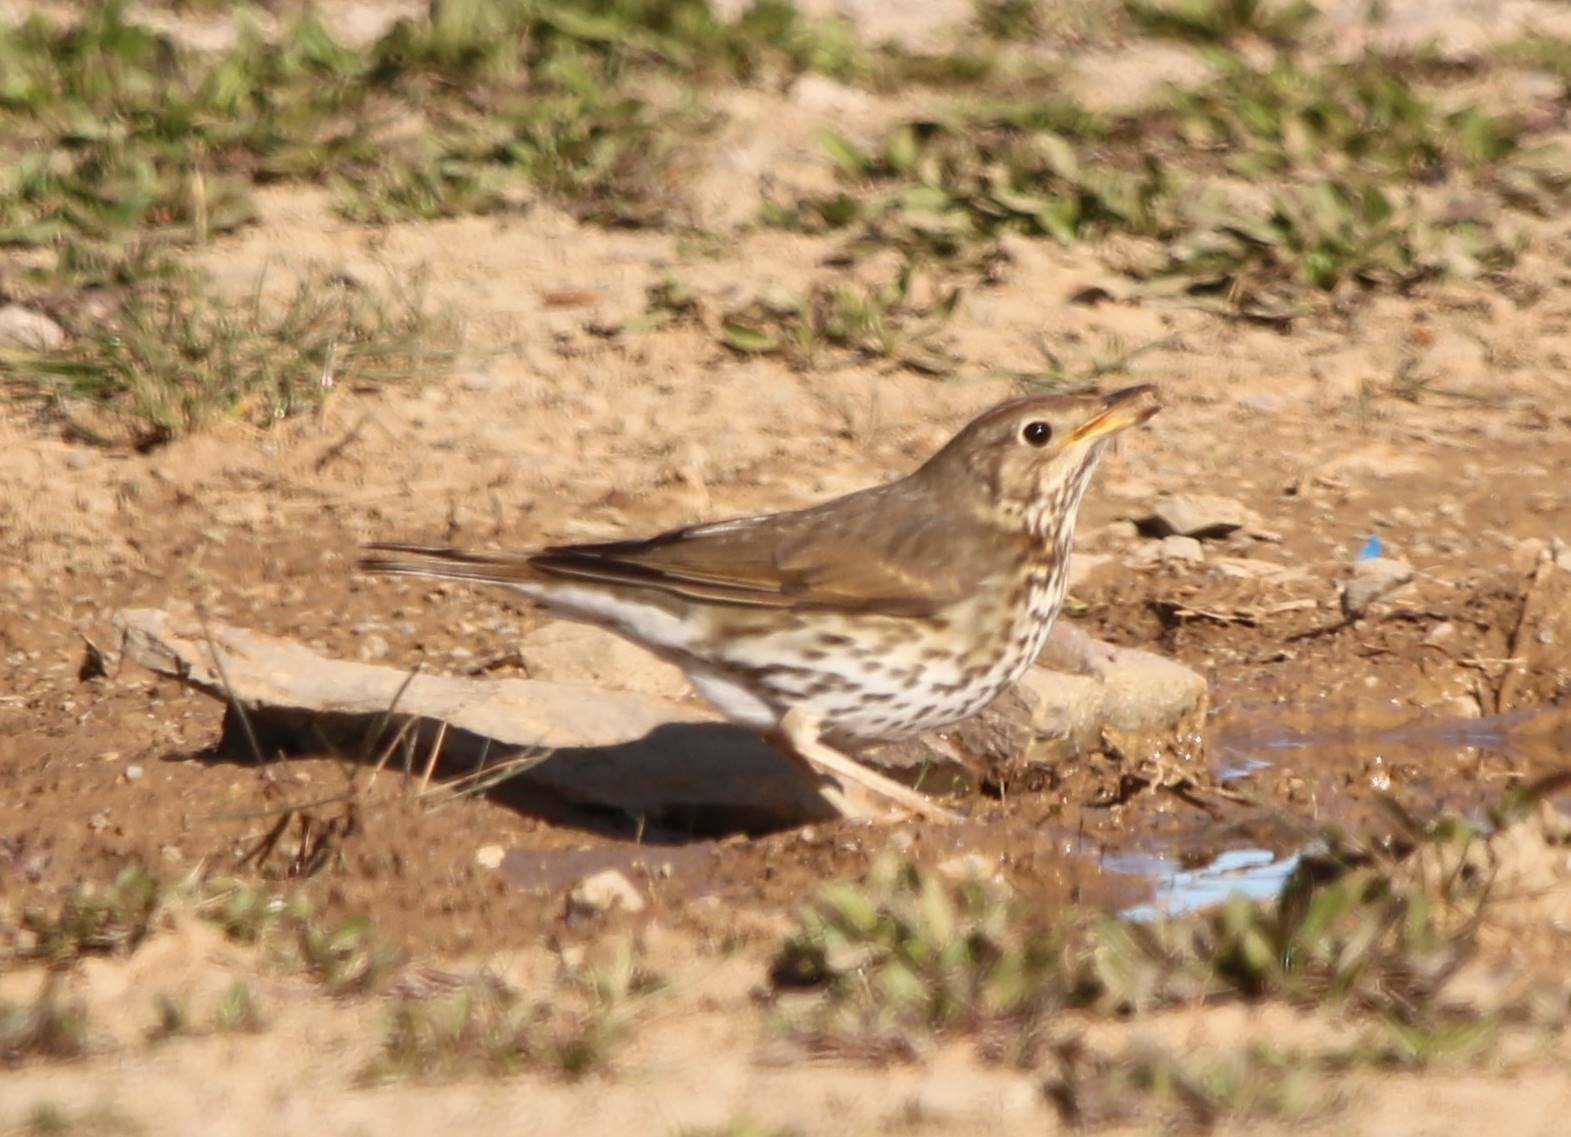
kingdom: Animalia
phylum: Chordata
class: Aves
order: Passeriformes
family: Turdidae
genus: Turdus
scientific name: Turdus philomelos
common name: Song thrush
